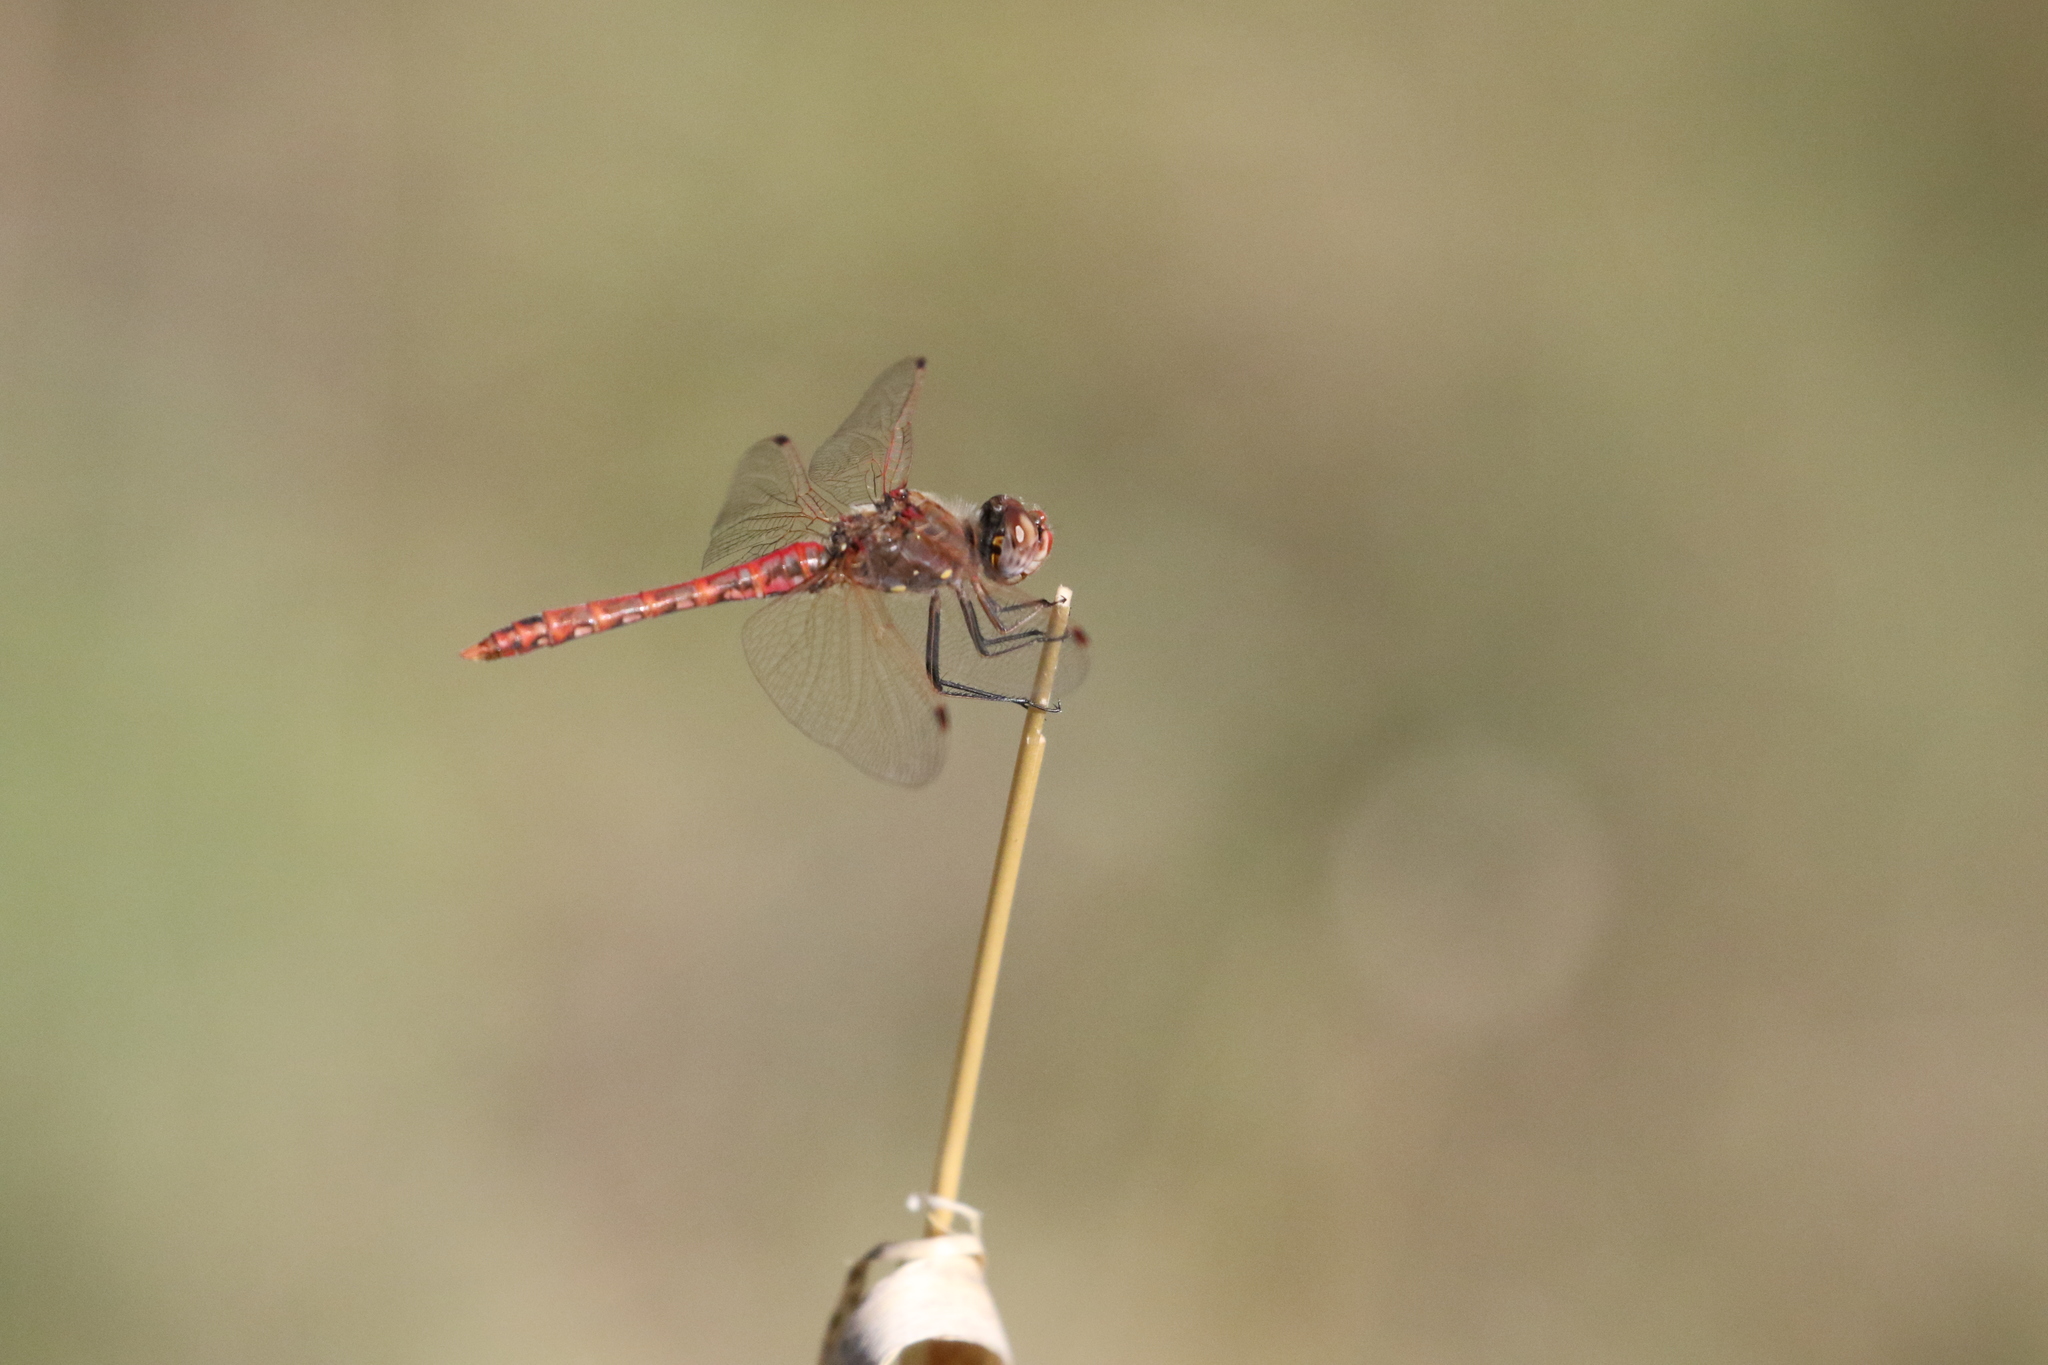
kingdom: Animalia
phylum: Arthropoda
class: Insecta
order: Odonata
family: Libellulidae
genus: Sympetrum
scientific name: Sympetrum corruptum
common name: Variegated meadowhawk
